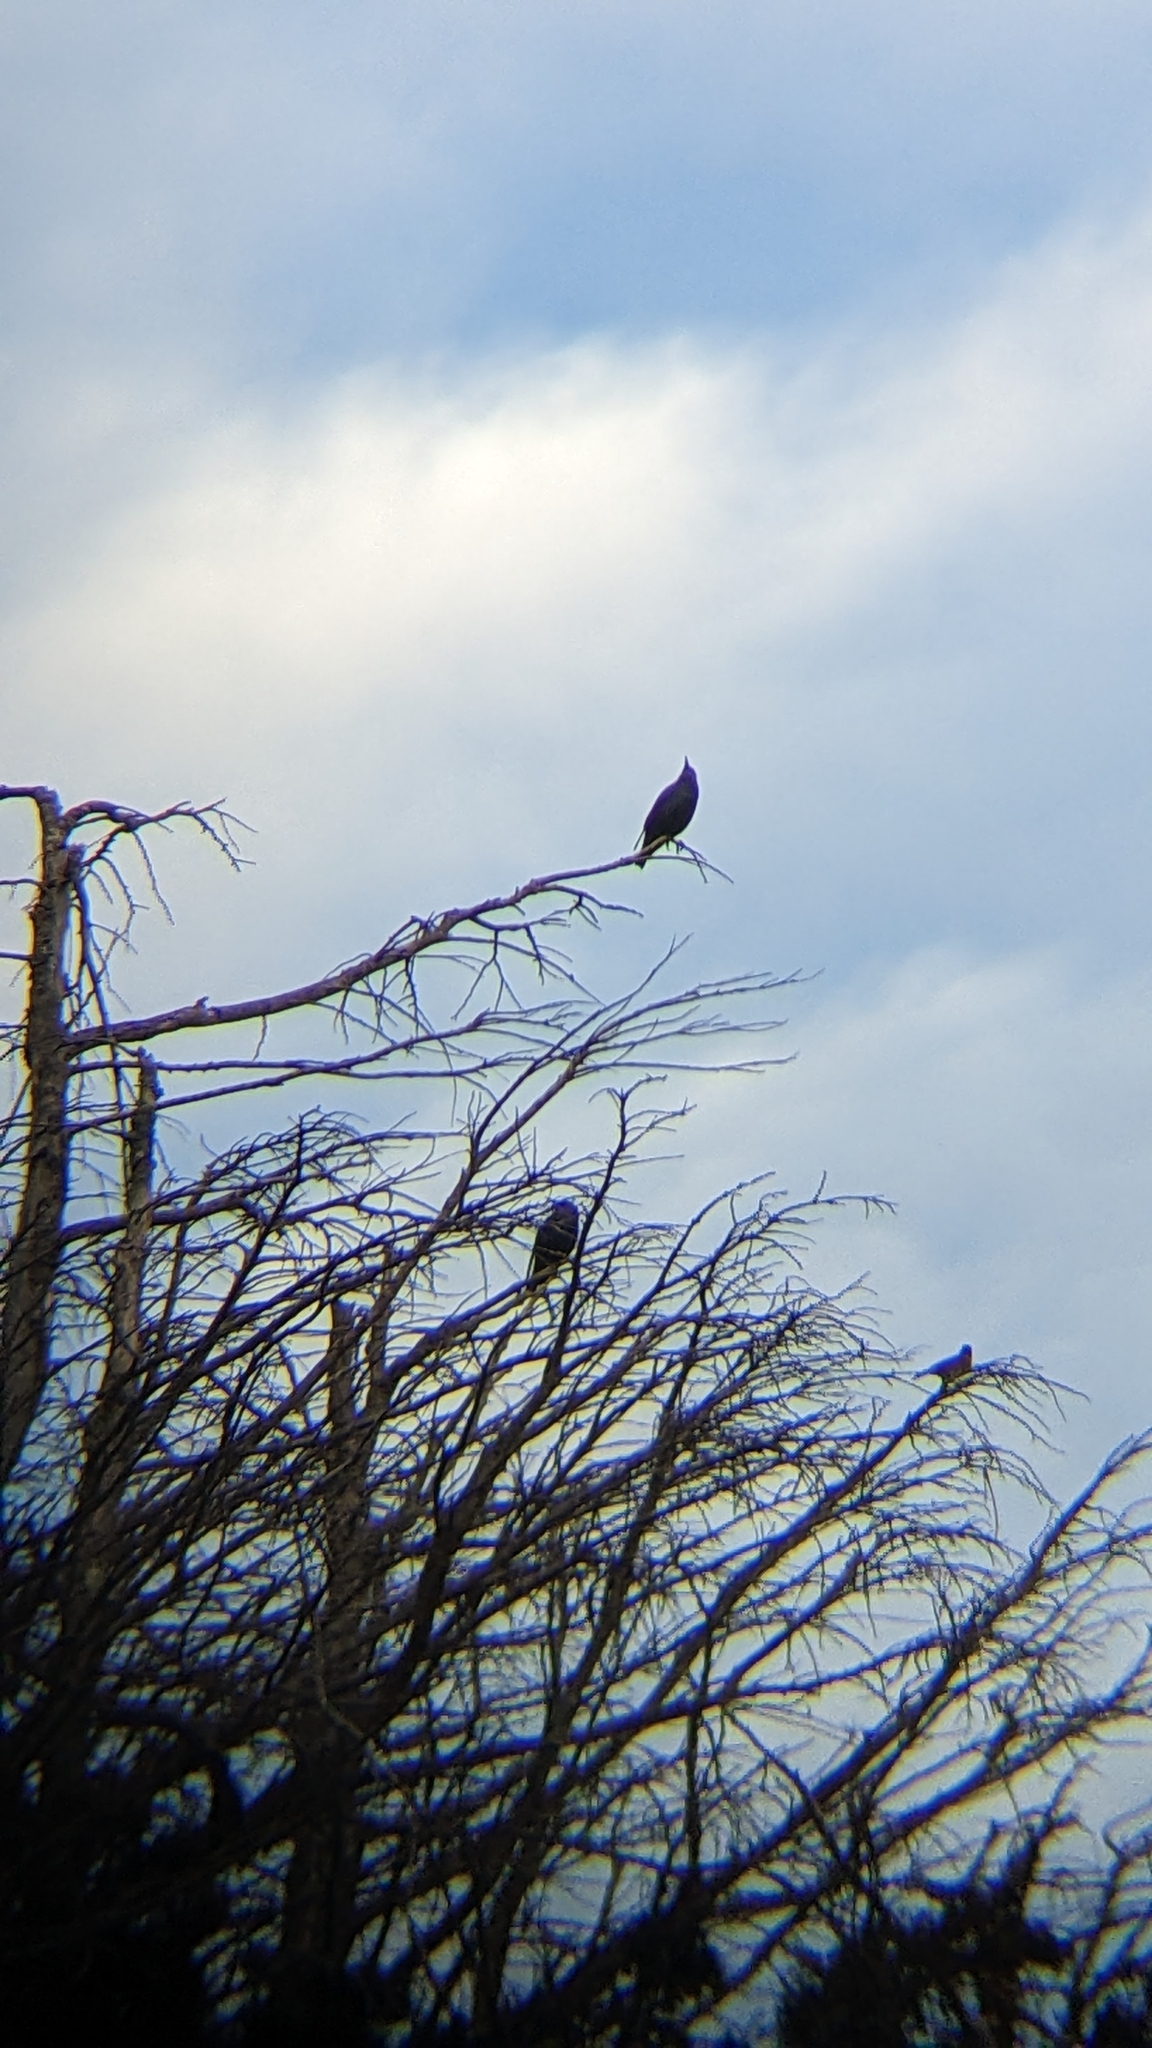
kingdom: Animalia
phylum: Chordata
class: Aves
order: Passeriformes
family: Sturnidae
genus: Sturnus
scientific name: Sturnus vulgaris
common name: Common starling
